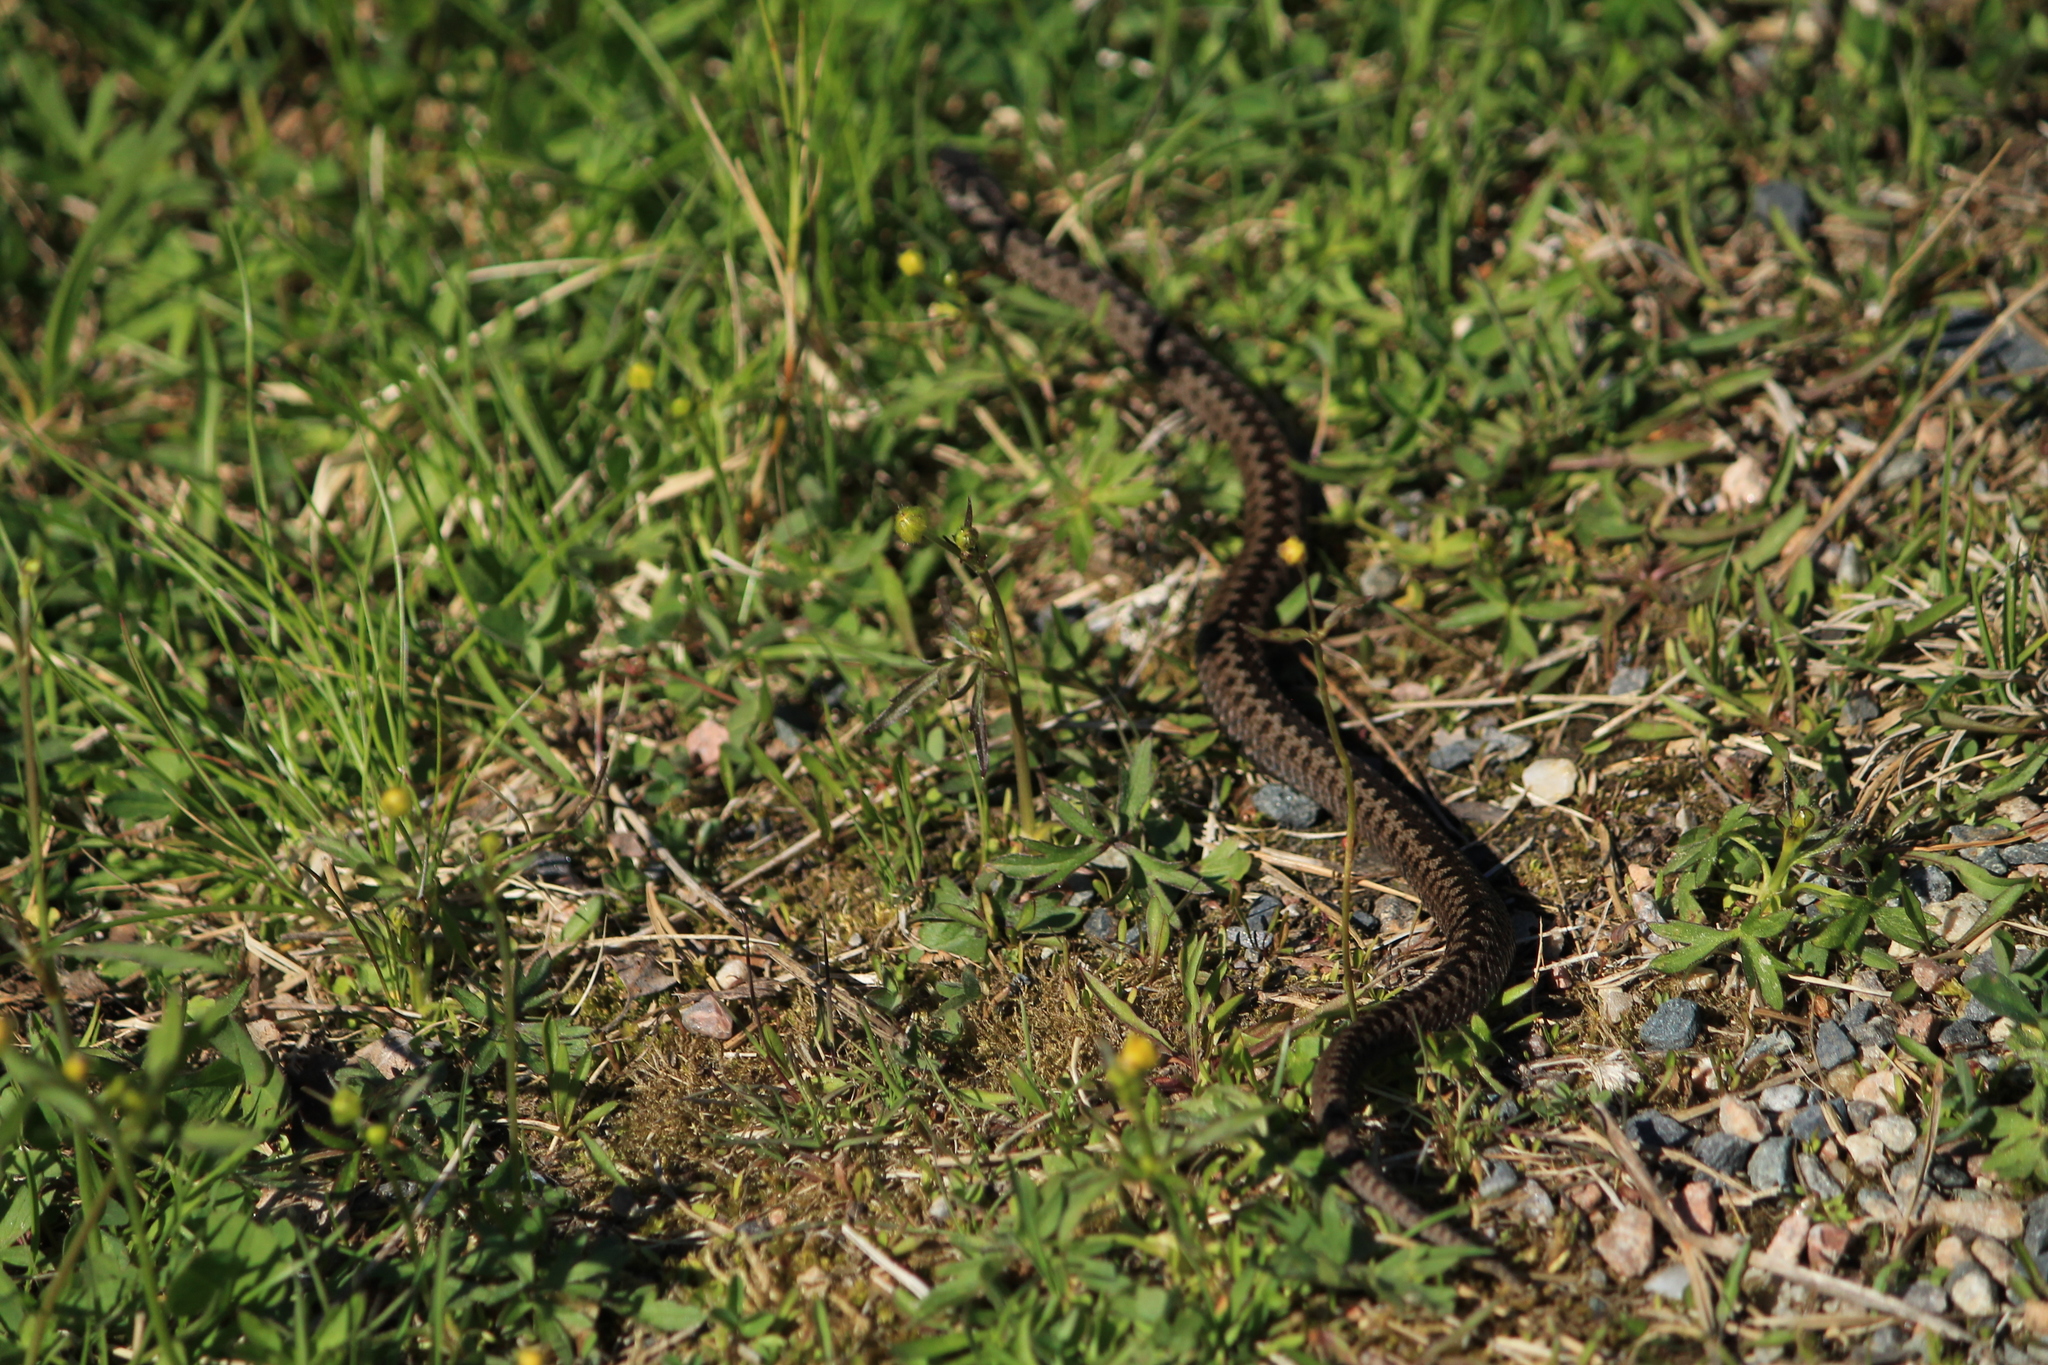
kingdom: Animalia
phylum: Chordata
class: Squamata
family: Viperidae
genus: Vipera
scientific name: Vipera berus
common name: Adder
